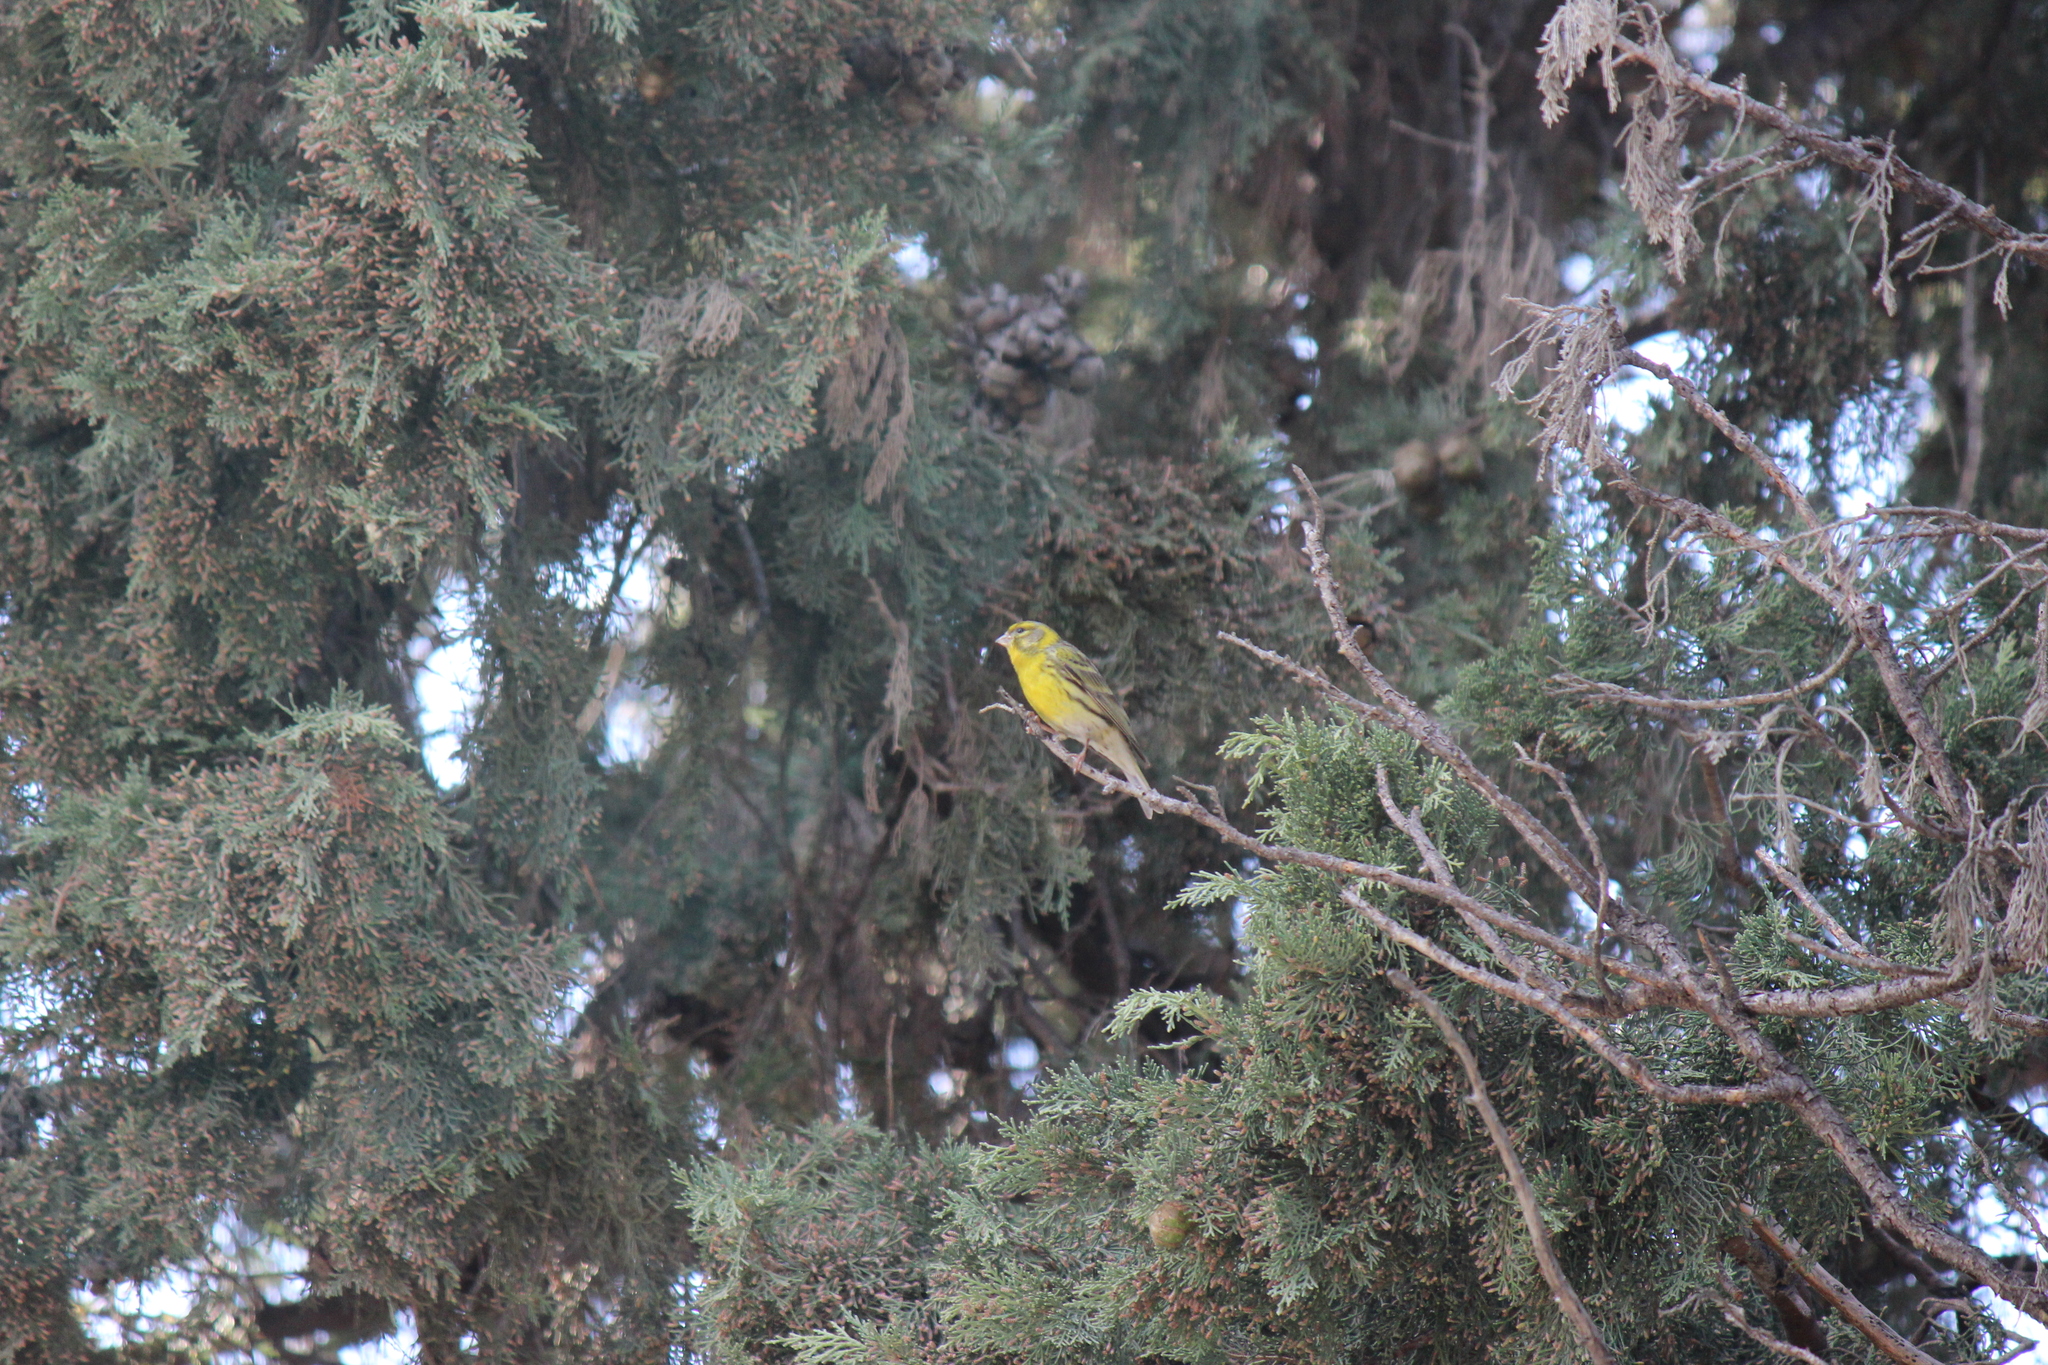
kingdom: Animalia
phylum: Chordata
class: Aves
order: Passeriformes
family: Fringillidae
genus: Serinus
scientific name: Serinus serinus
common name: European serin
